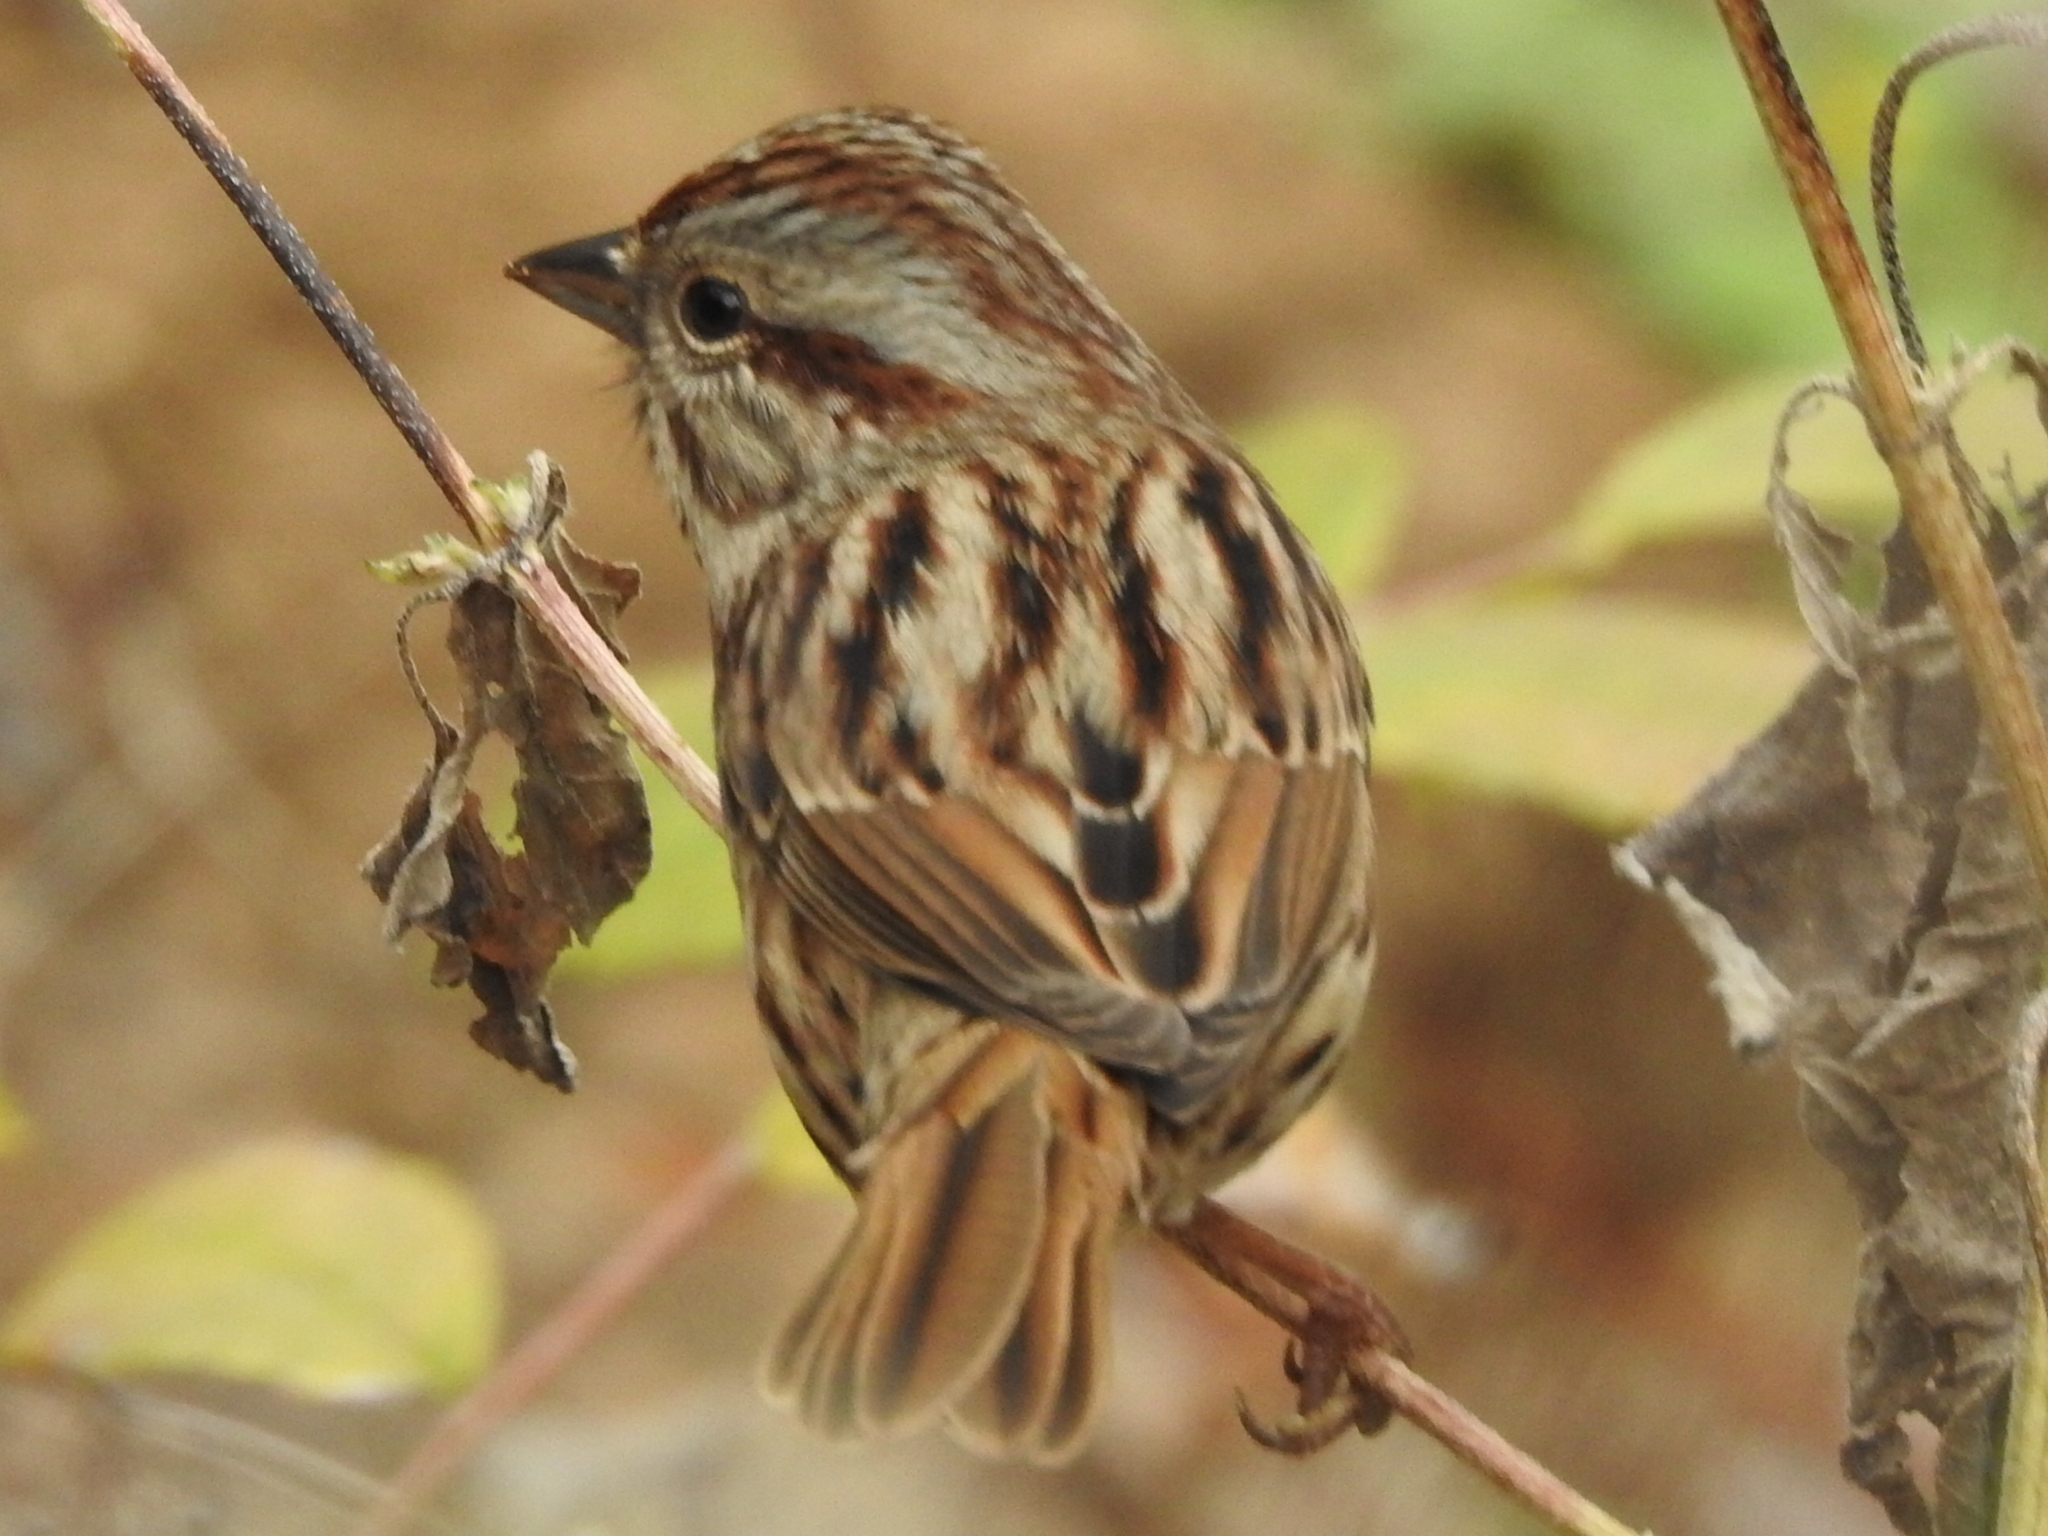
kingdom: Animalia
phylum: Chordata
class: Aves
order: Passeriformes
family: Passerellidae
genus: Melospiza
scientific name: Melospiza melodia
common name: Song sparrow
